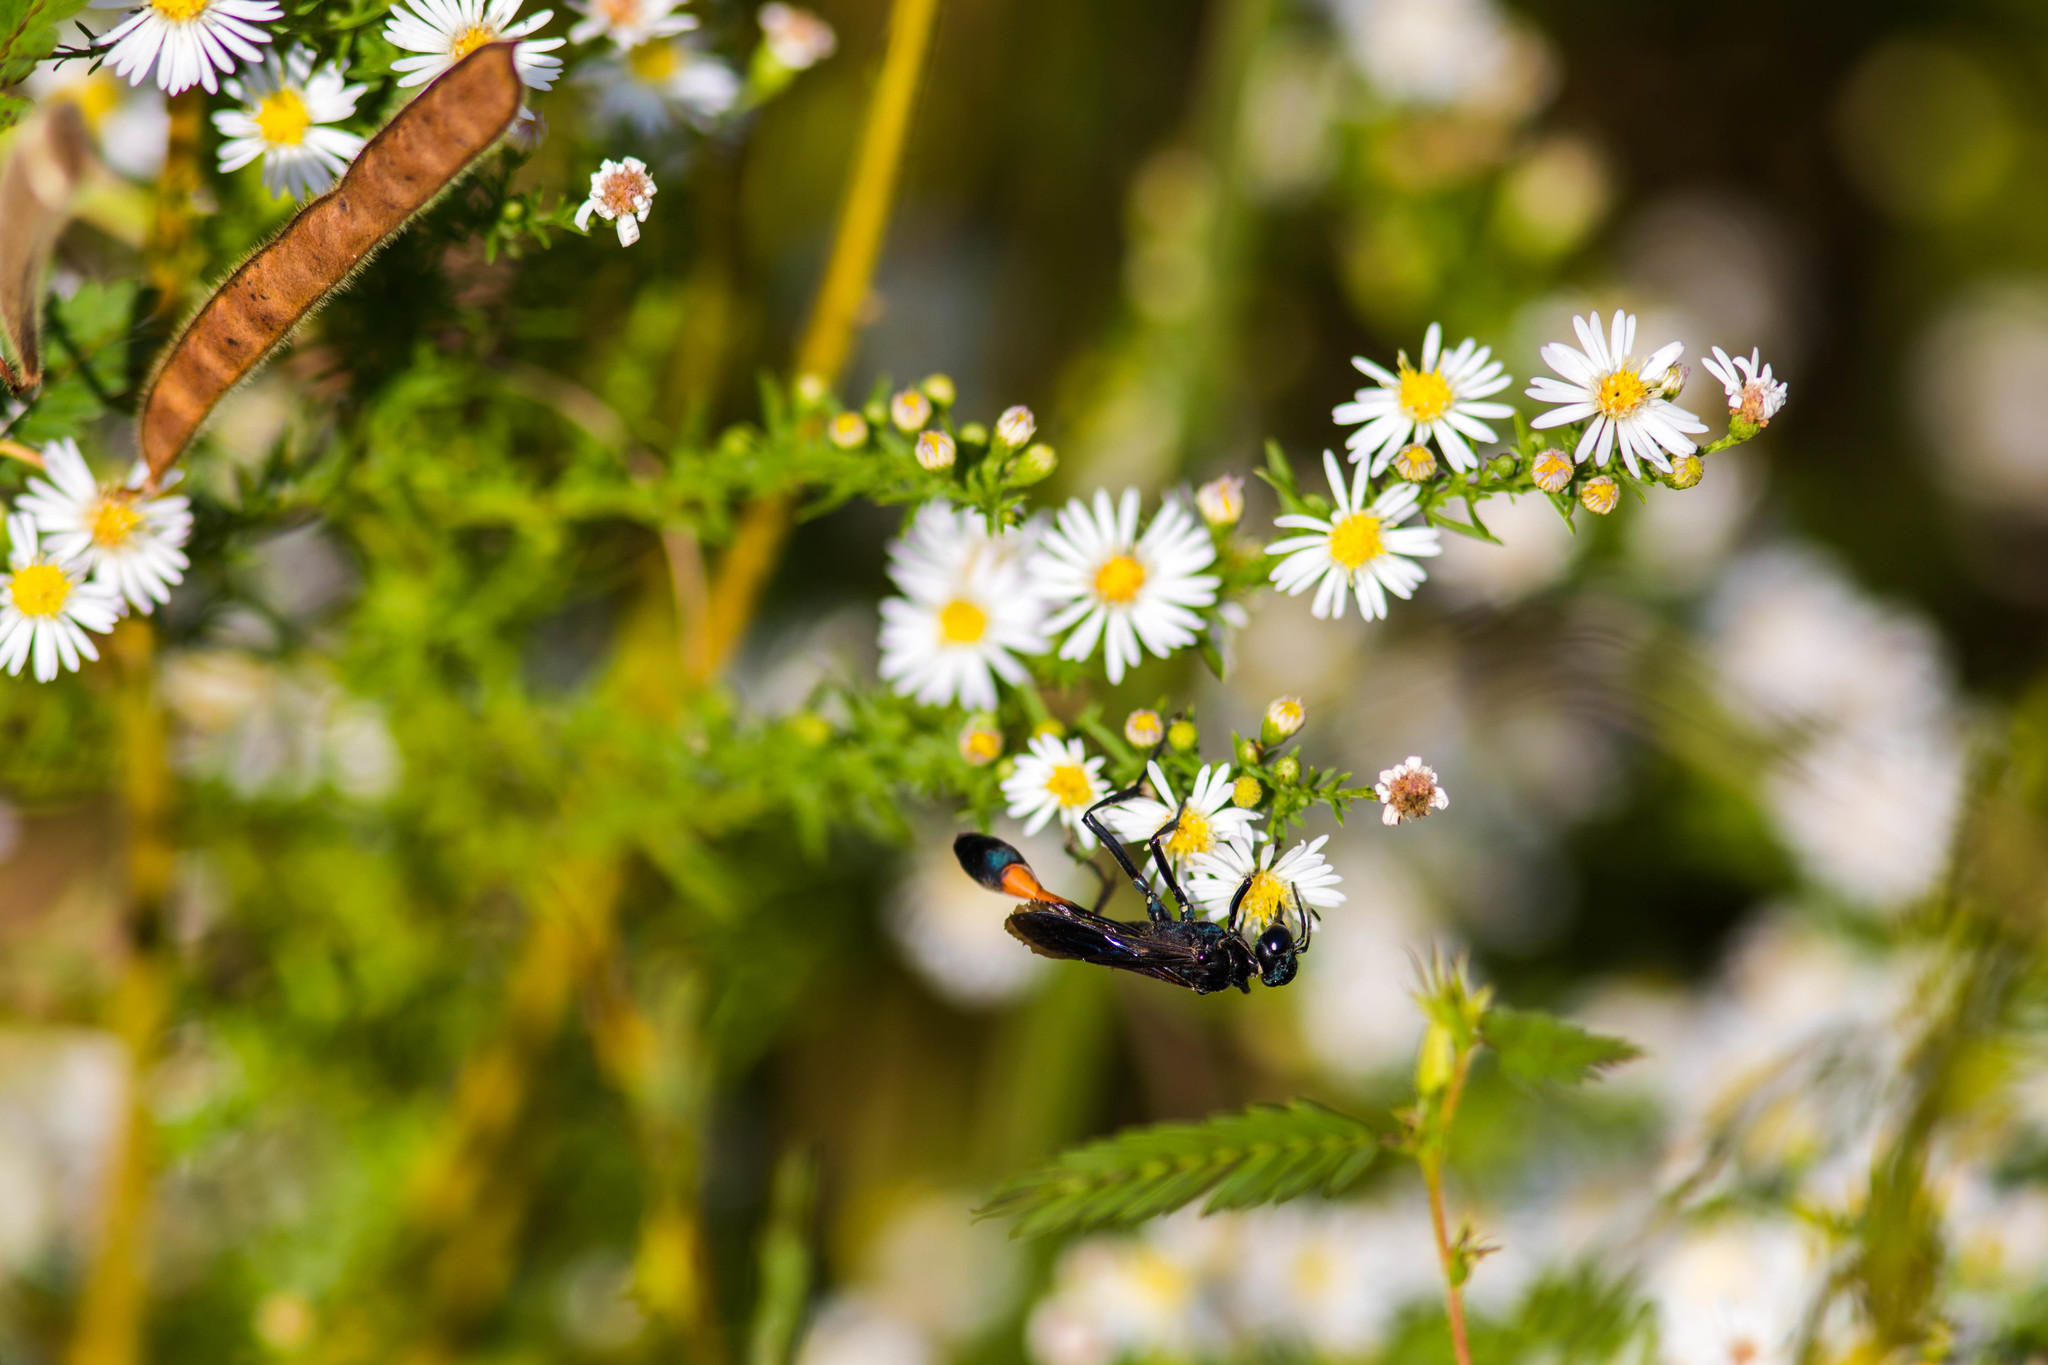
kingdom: Animalia
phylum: Arthropoda
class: Insecta
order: Hymenoptera
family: Sphecidae
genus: Ammophila
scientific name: Ammophila nigricans
